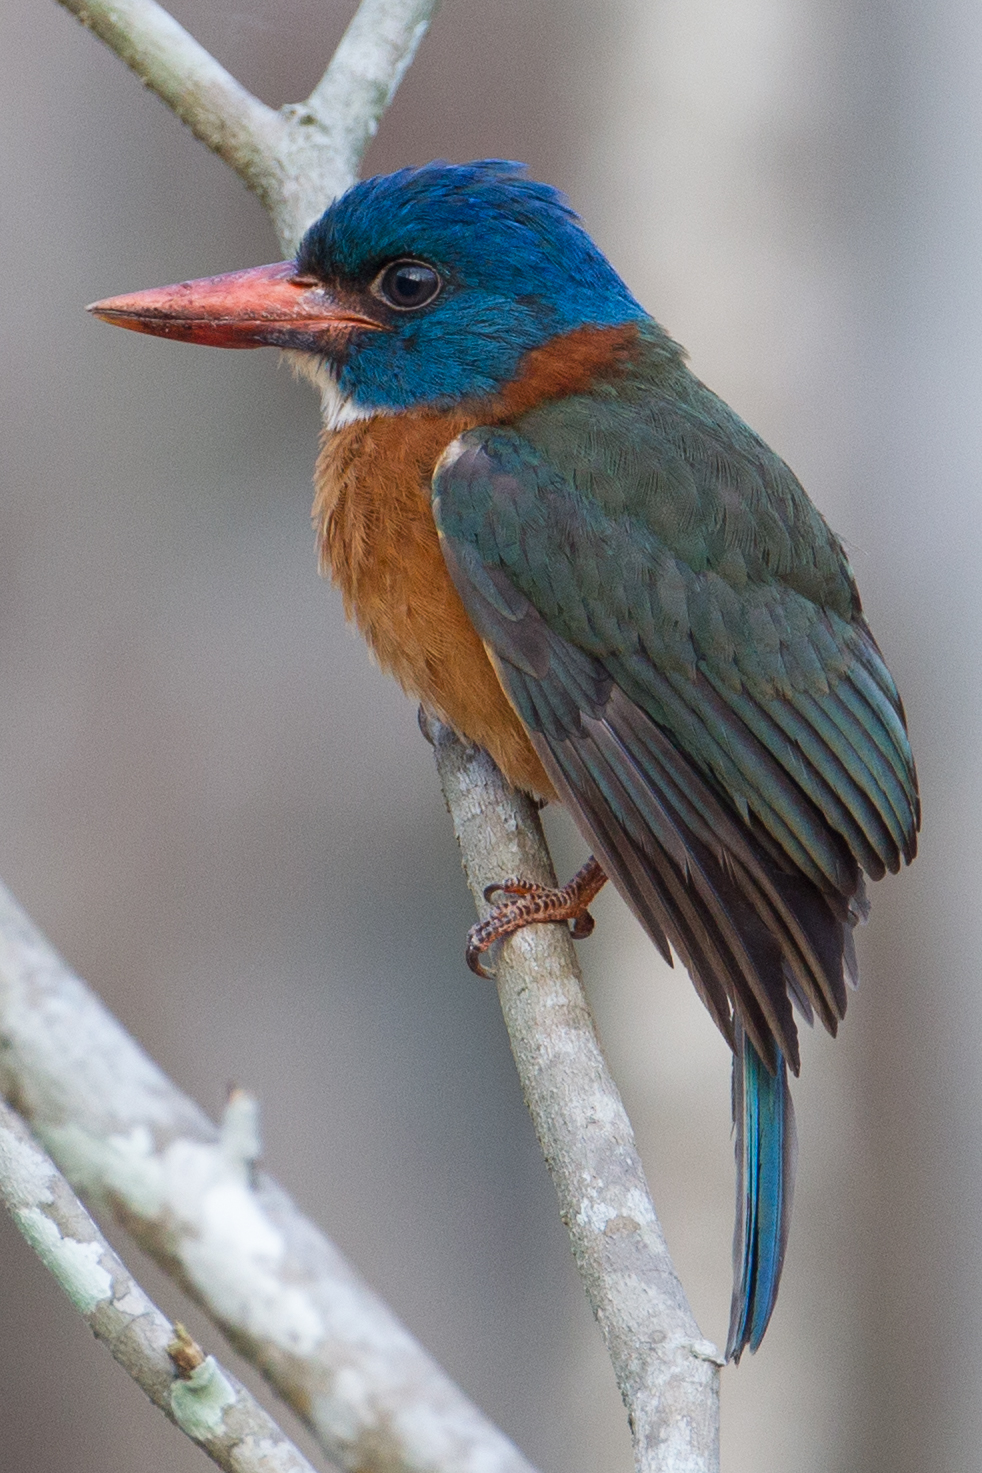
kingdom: Animalia
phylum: Chordata
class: Aves
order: Coraciiformes
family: Alcedinidae
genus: Actenoides
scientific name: Actenoides monachus
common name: Green-backed kingfisher
